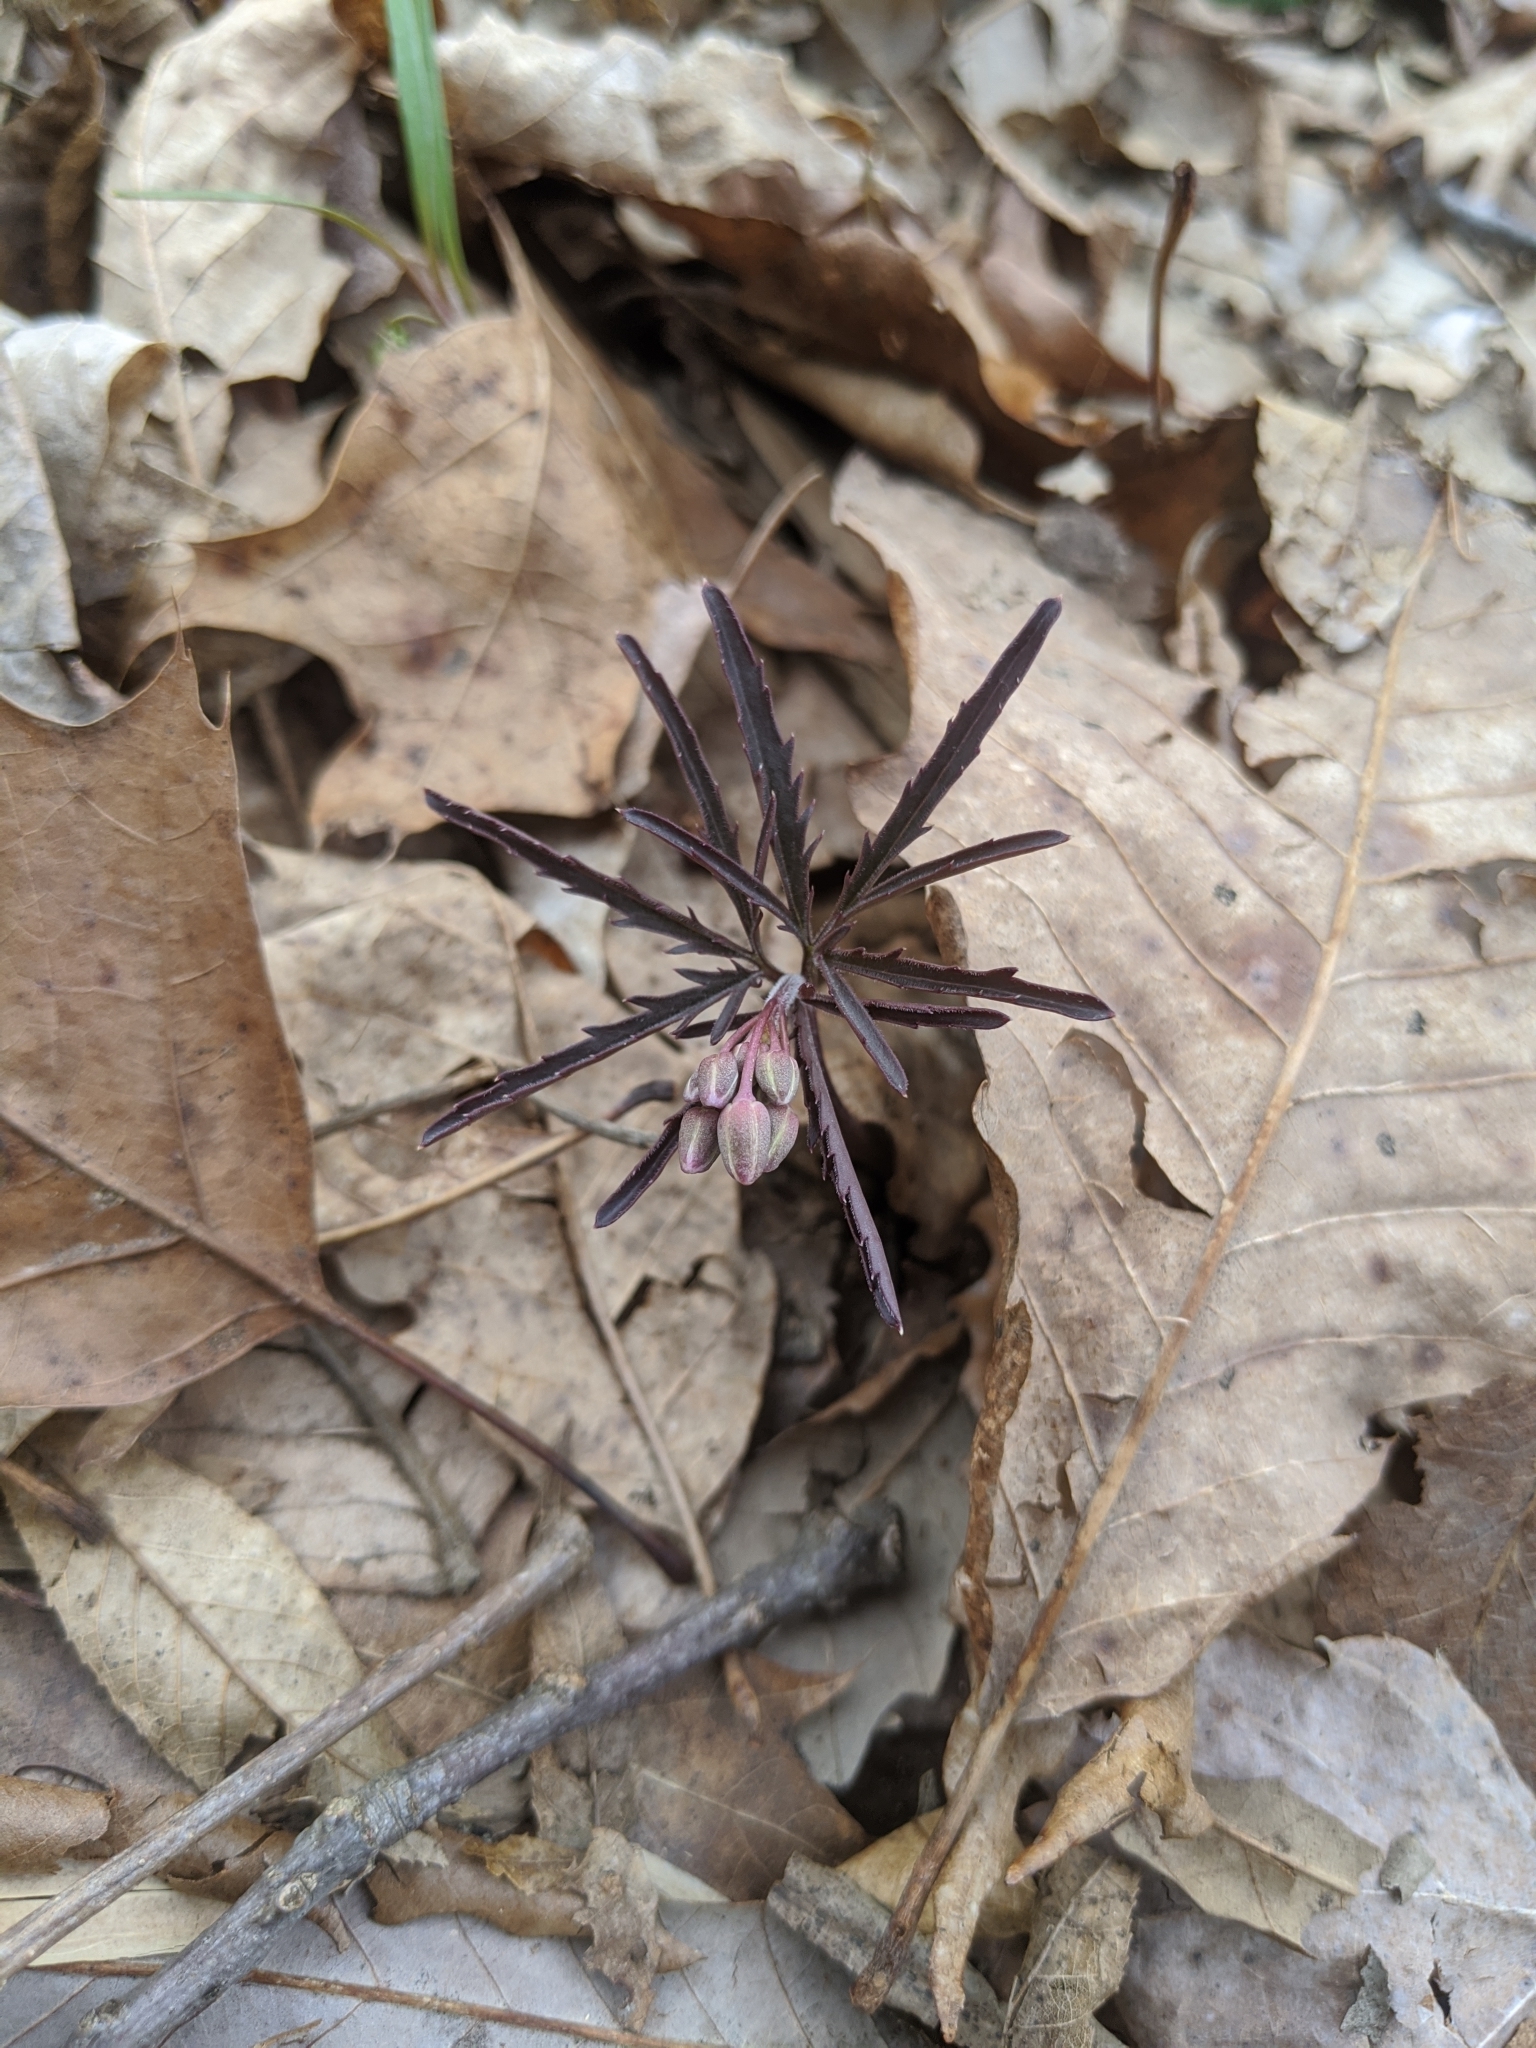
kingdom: Plantae
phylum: Tracheophyta
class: Magnoliopsida
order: Brassicales
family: Brassicaceae
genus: Cardamine
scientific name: Cardamine concatenata
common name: Cut-leaf toothcup
